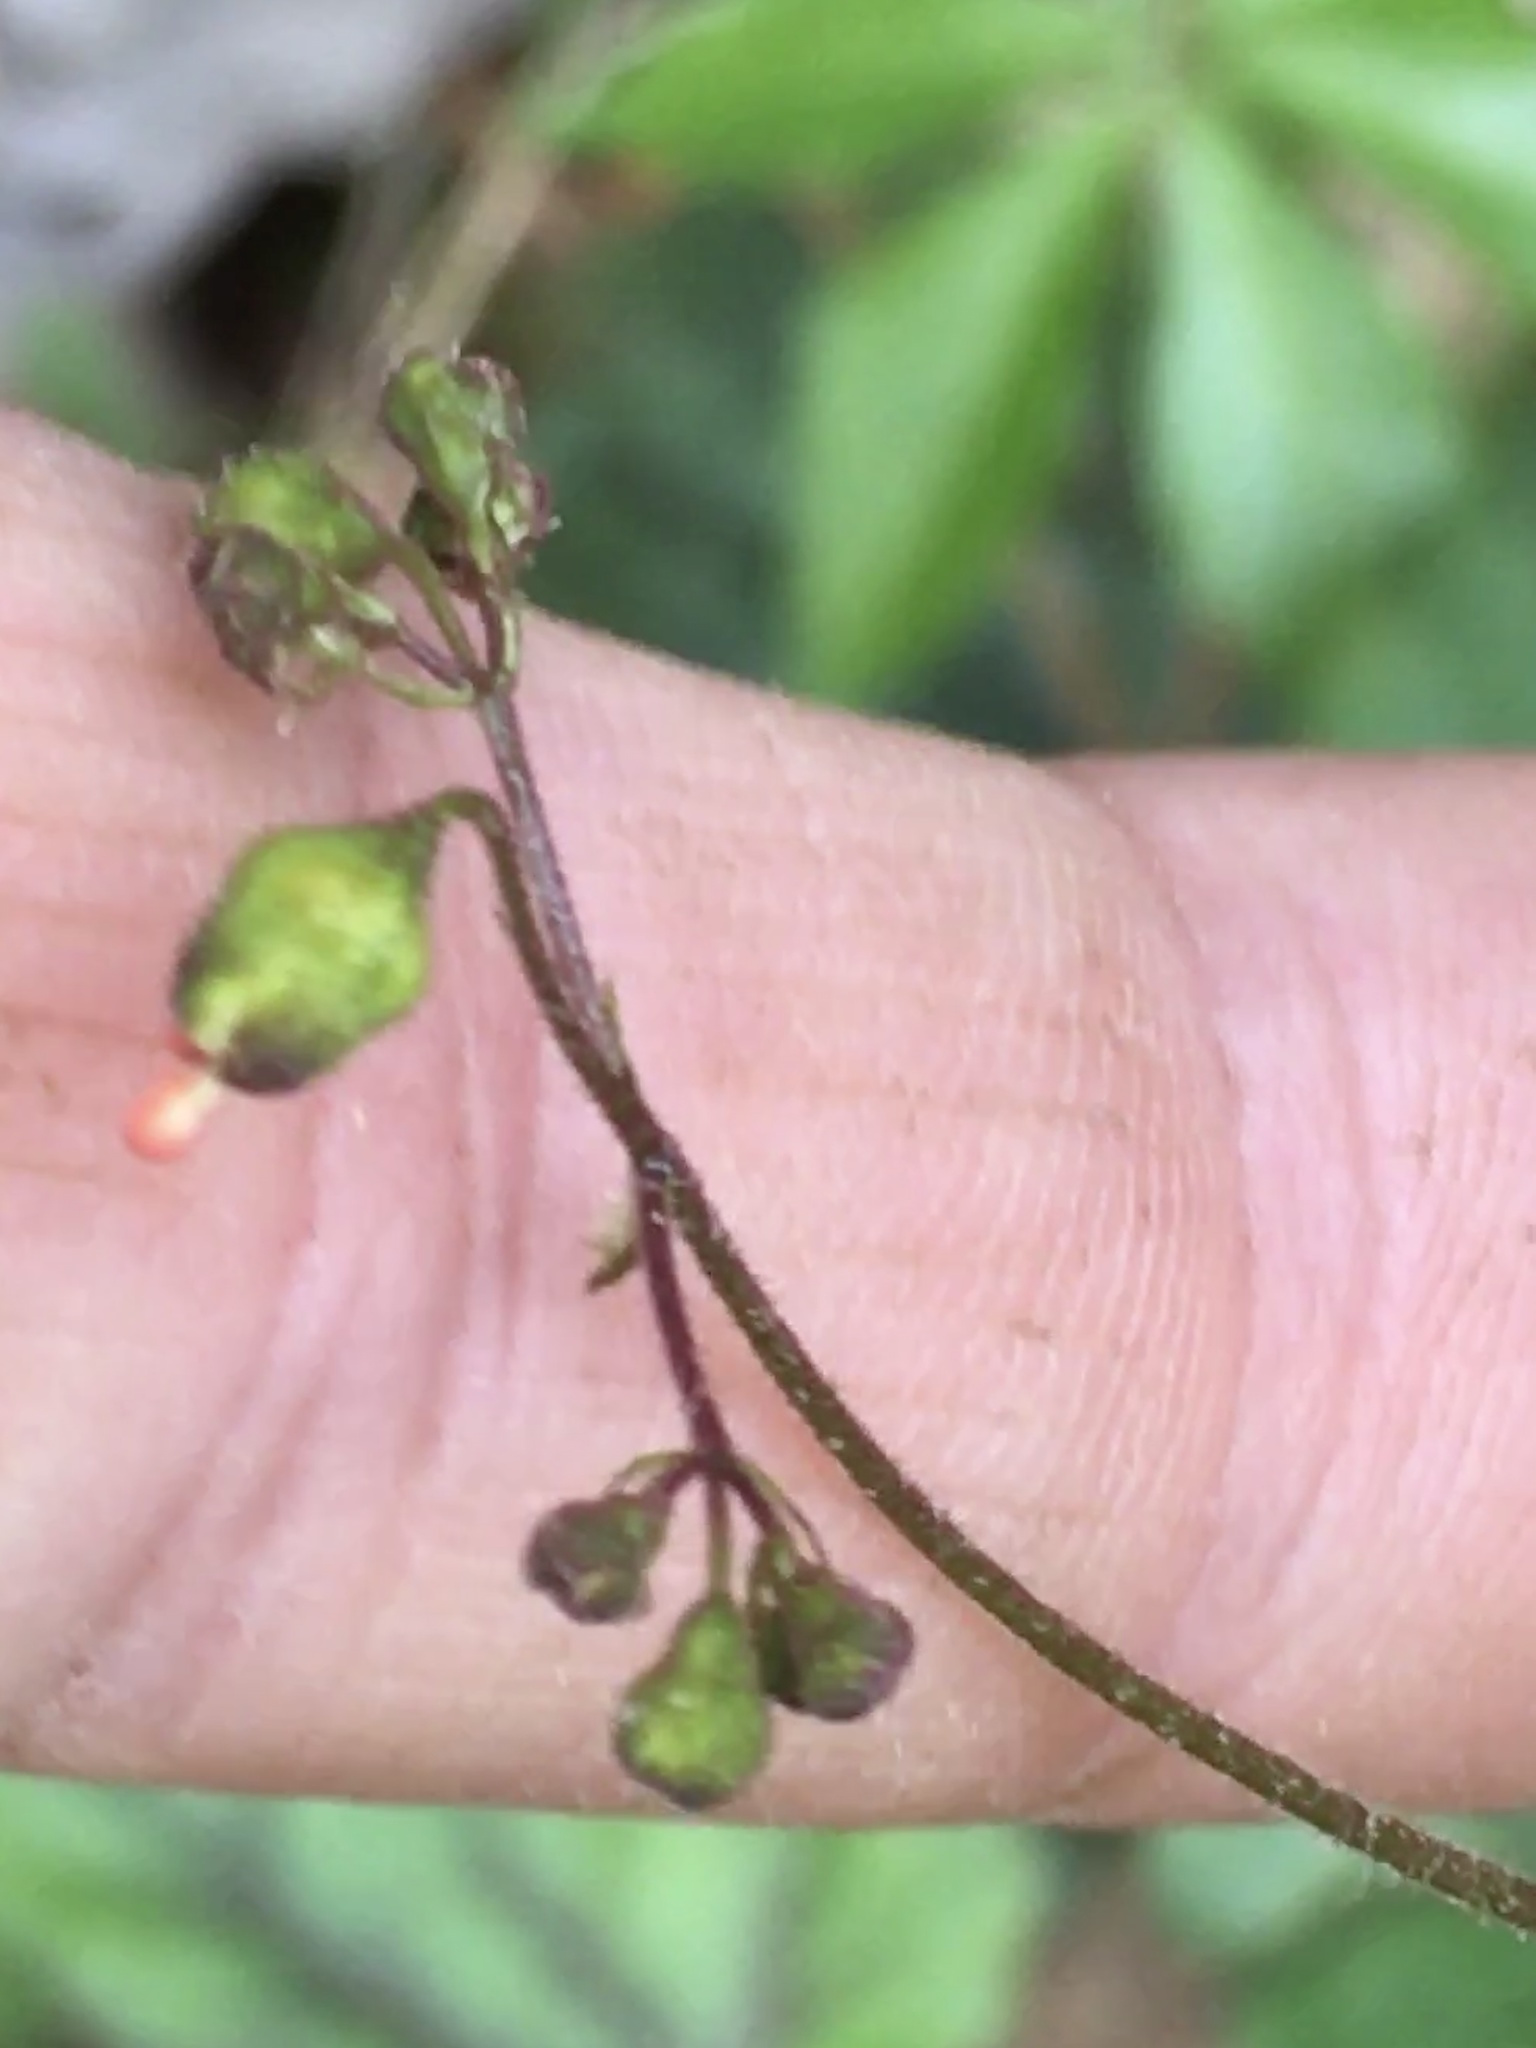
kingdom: Plantae
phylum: Tracheophyta
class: Magnoliopsida
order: Saxifragales
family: Saxifragaceae
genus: Heuchera
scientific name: Heuchera caroliniana
